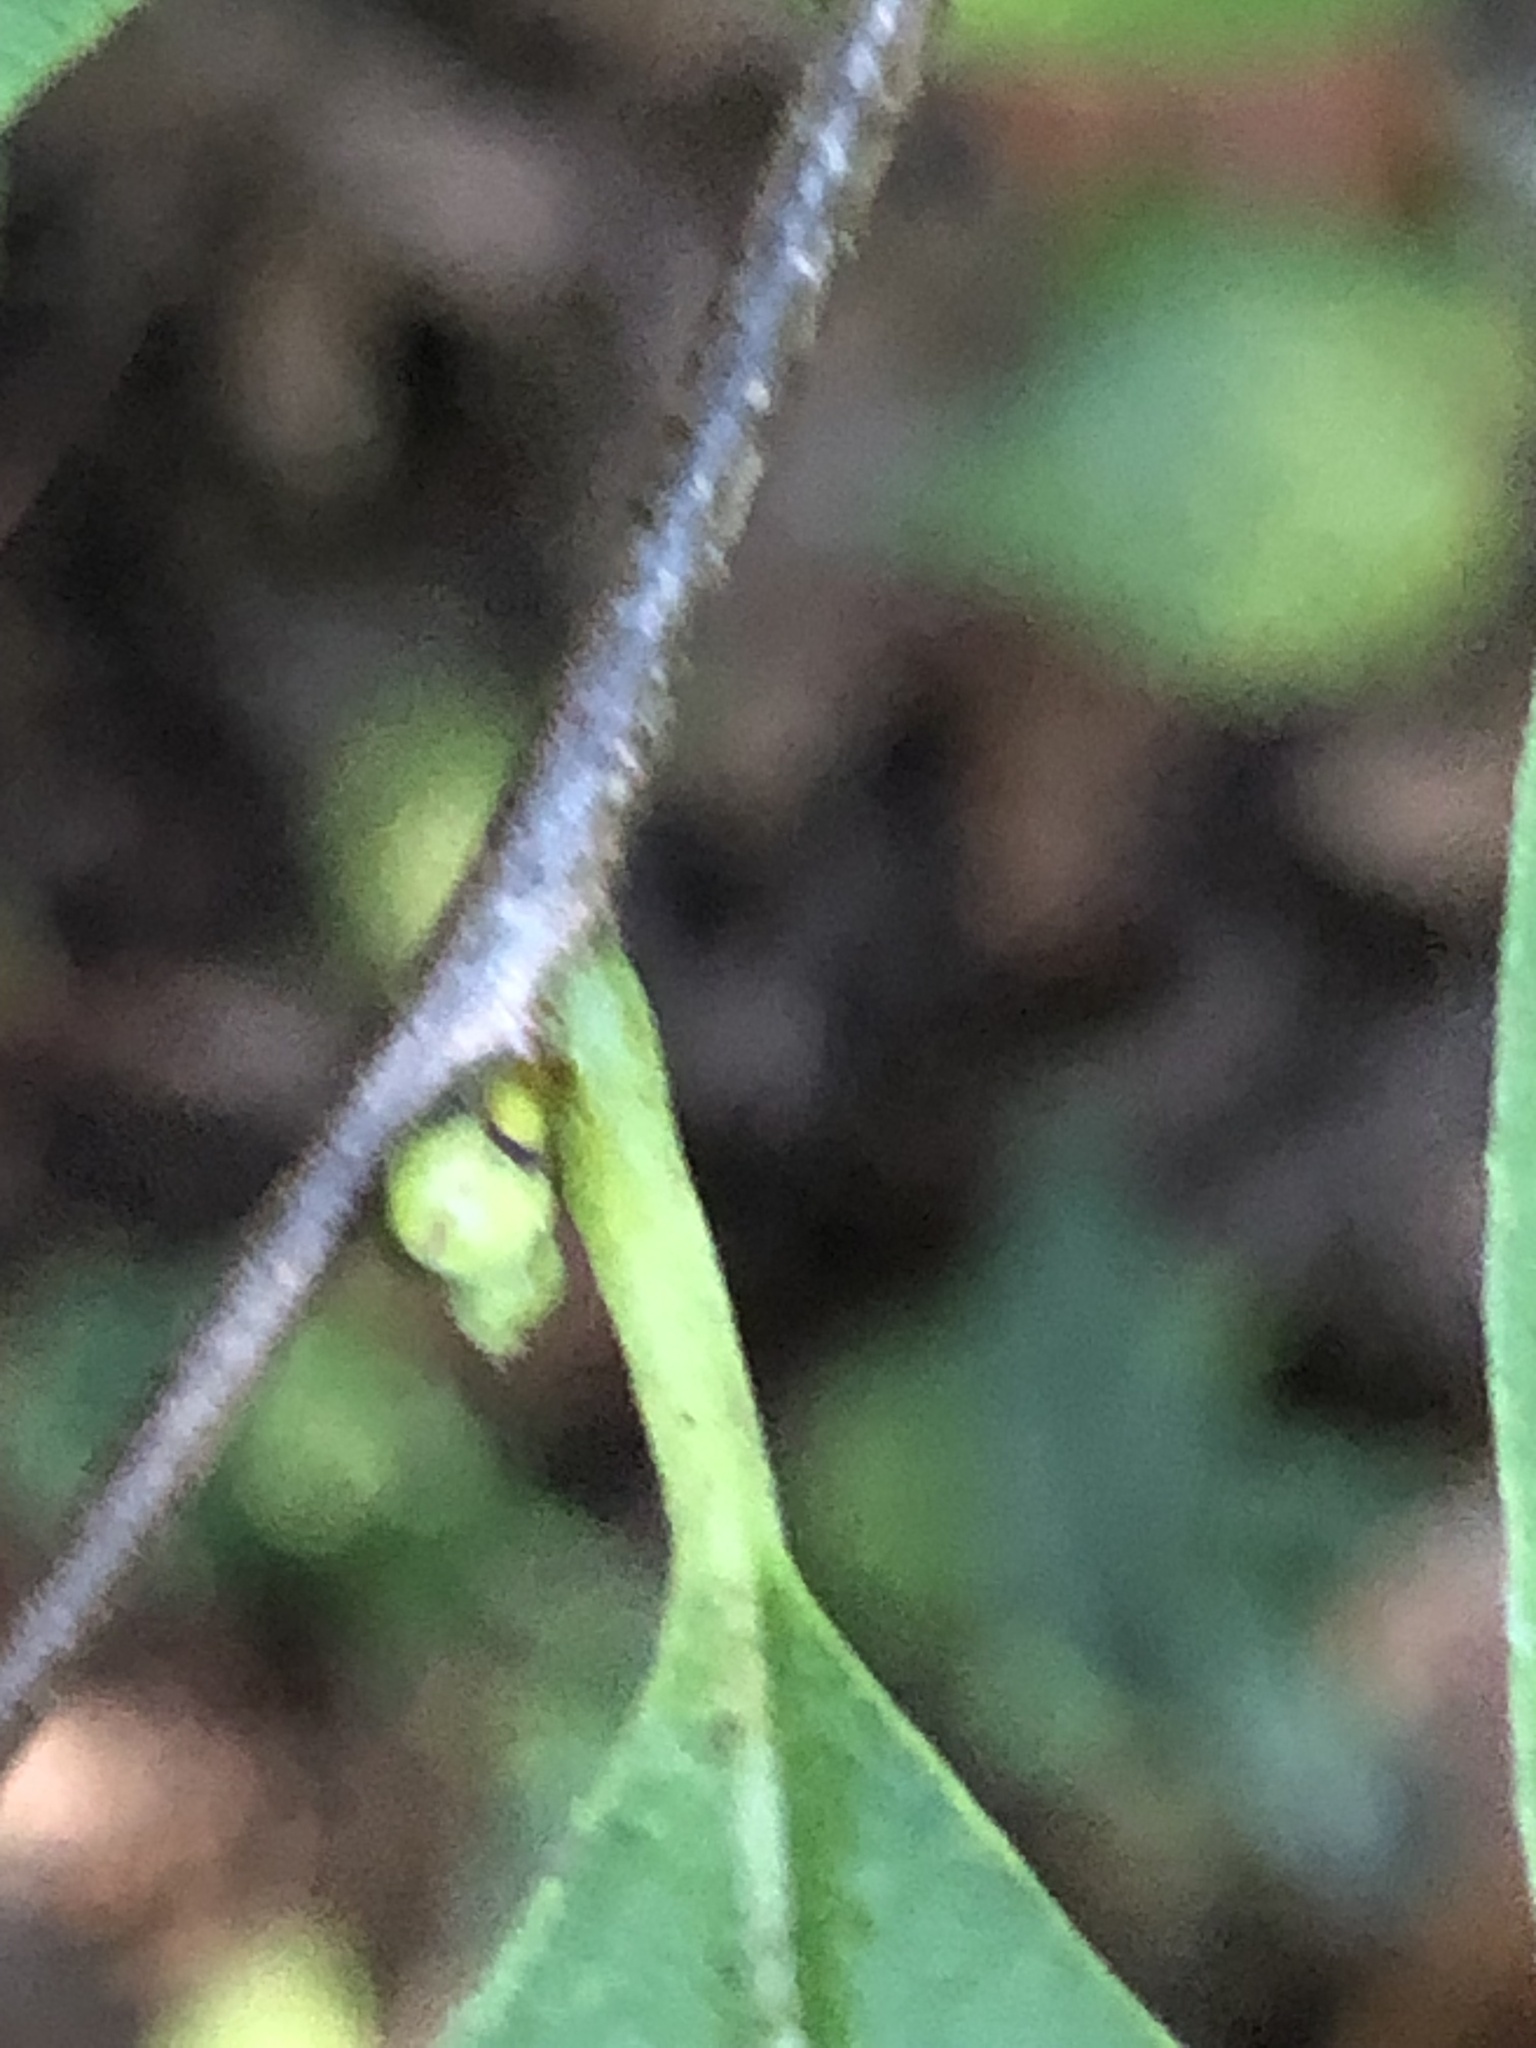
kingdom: Plantae
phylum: Tracheophyta
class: Magnoliopsida
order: Laurales
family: Lauraceae
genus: Lindera
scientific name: Lindera benzoin
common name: Spicebush
